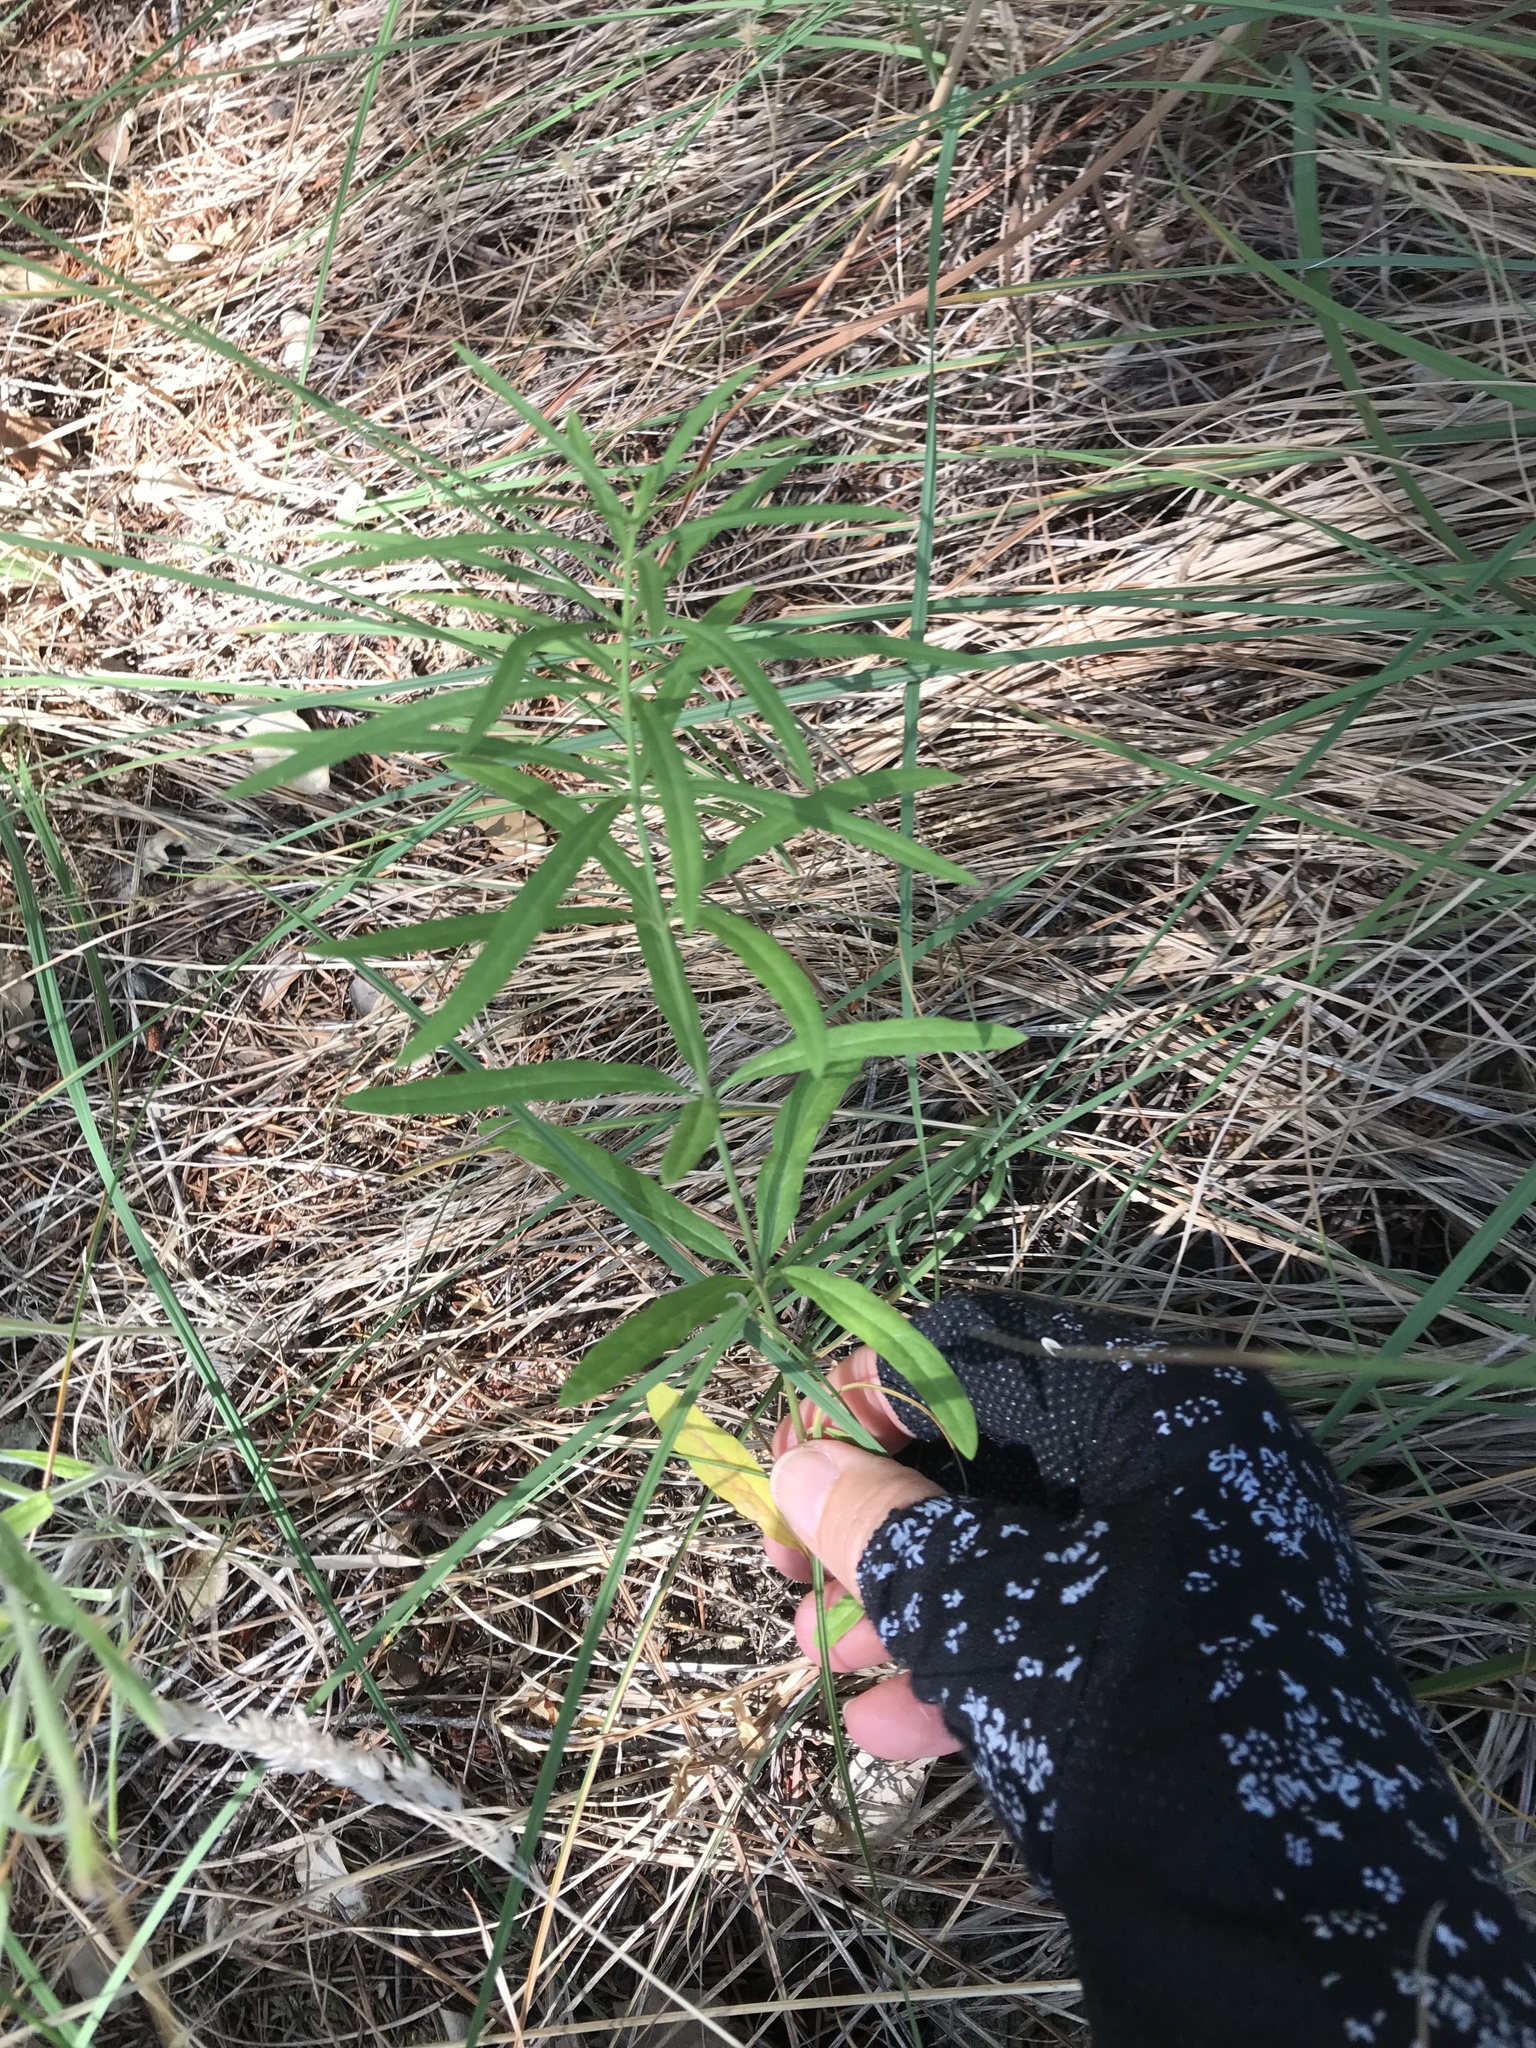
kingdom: Plantae
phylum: Tracheophyta
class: Magnoliopsida
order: Gentianales
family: Apocynaceae
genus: Asclepias
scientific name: Asclepias fascicularis
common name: Mexican milkweed
